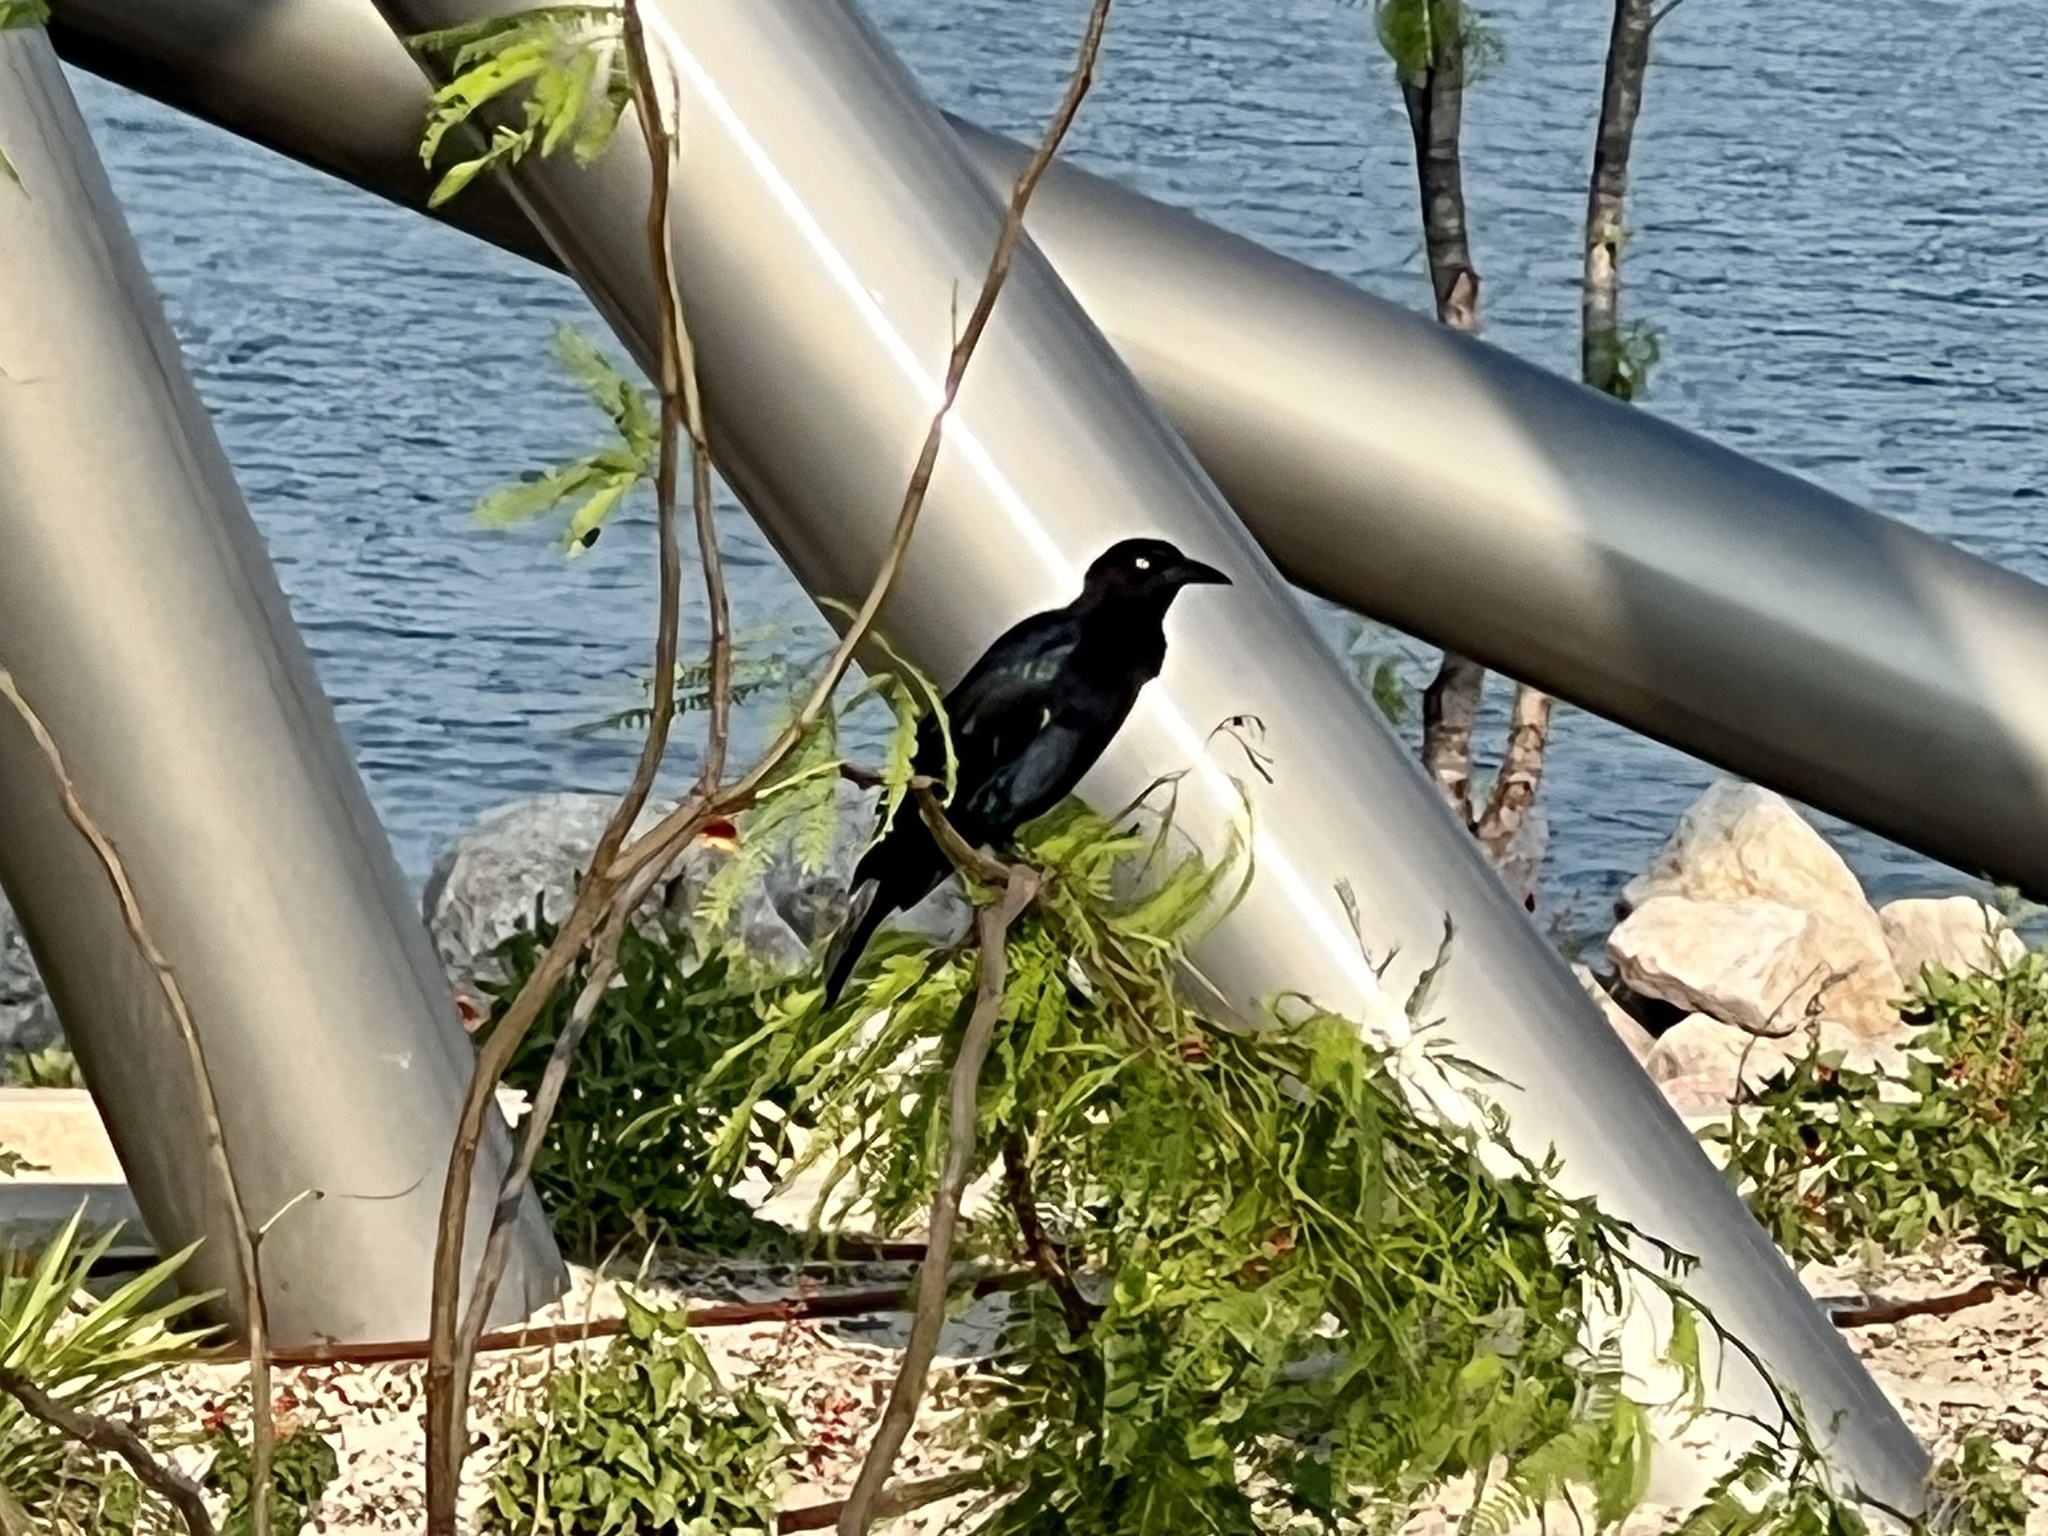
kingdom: Animalia
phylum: Chordata
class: Aves
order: Passeriformes
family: Icteridae
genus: Quiscalus
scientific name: Quiscalus mexicanus
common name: Great-tailed grackle
